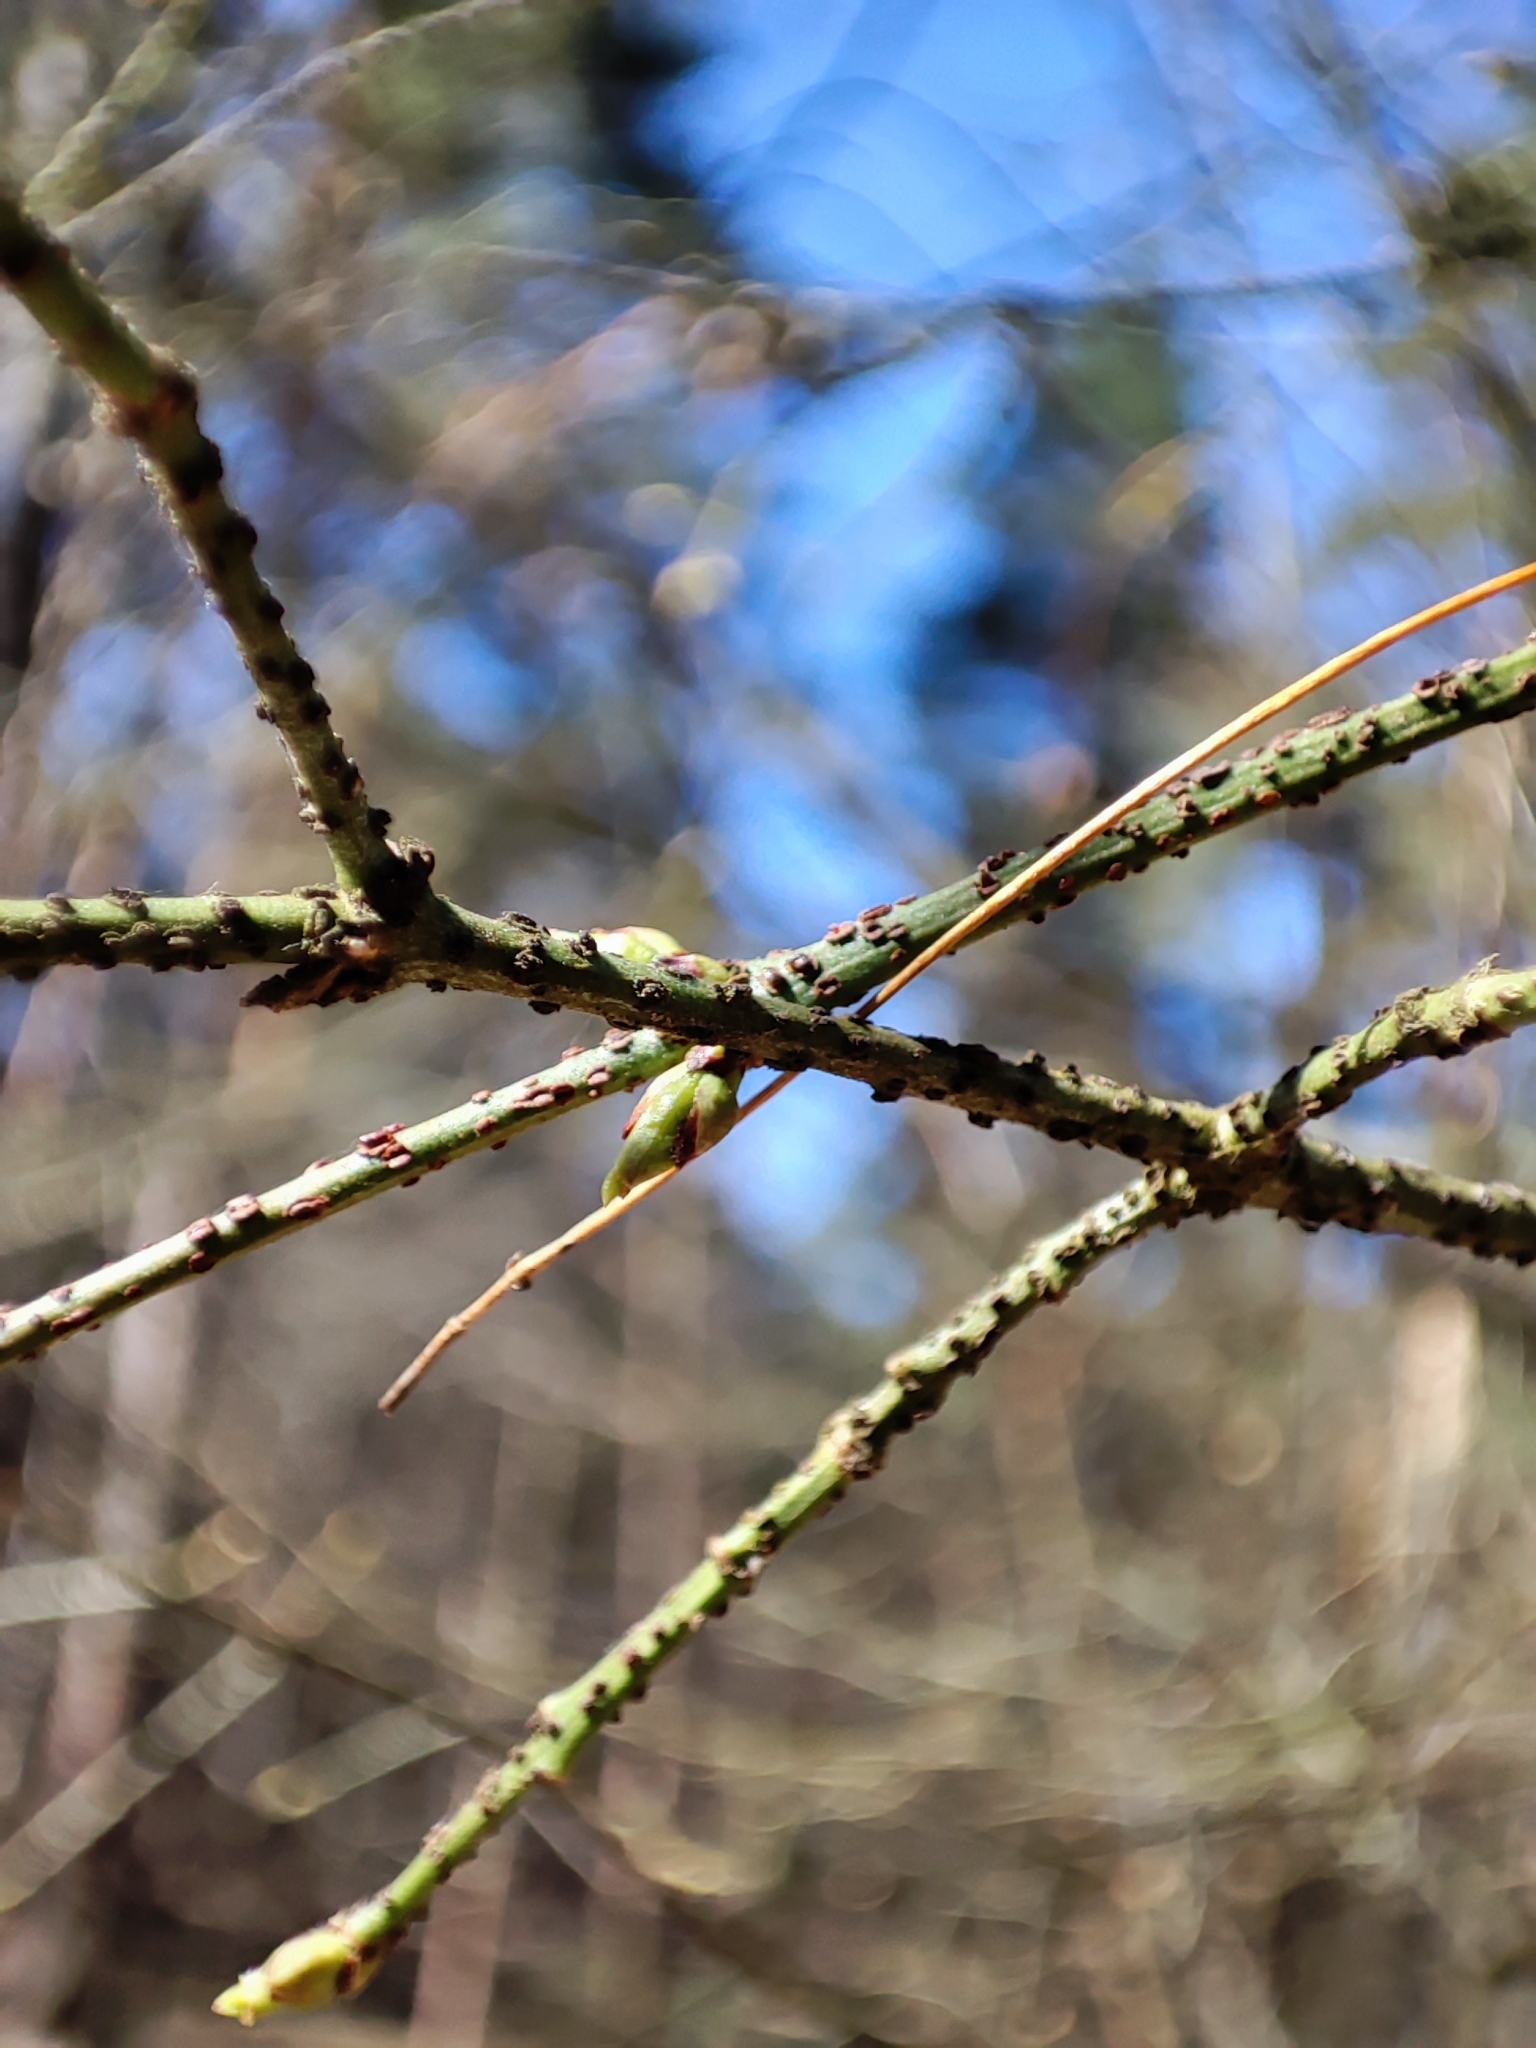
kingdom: Plantae
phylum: Tracheophyta
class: Magnoliopsida
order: Celastrales
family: Celastraceae
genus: Euonymus
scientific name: Euonymus verrucosus
